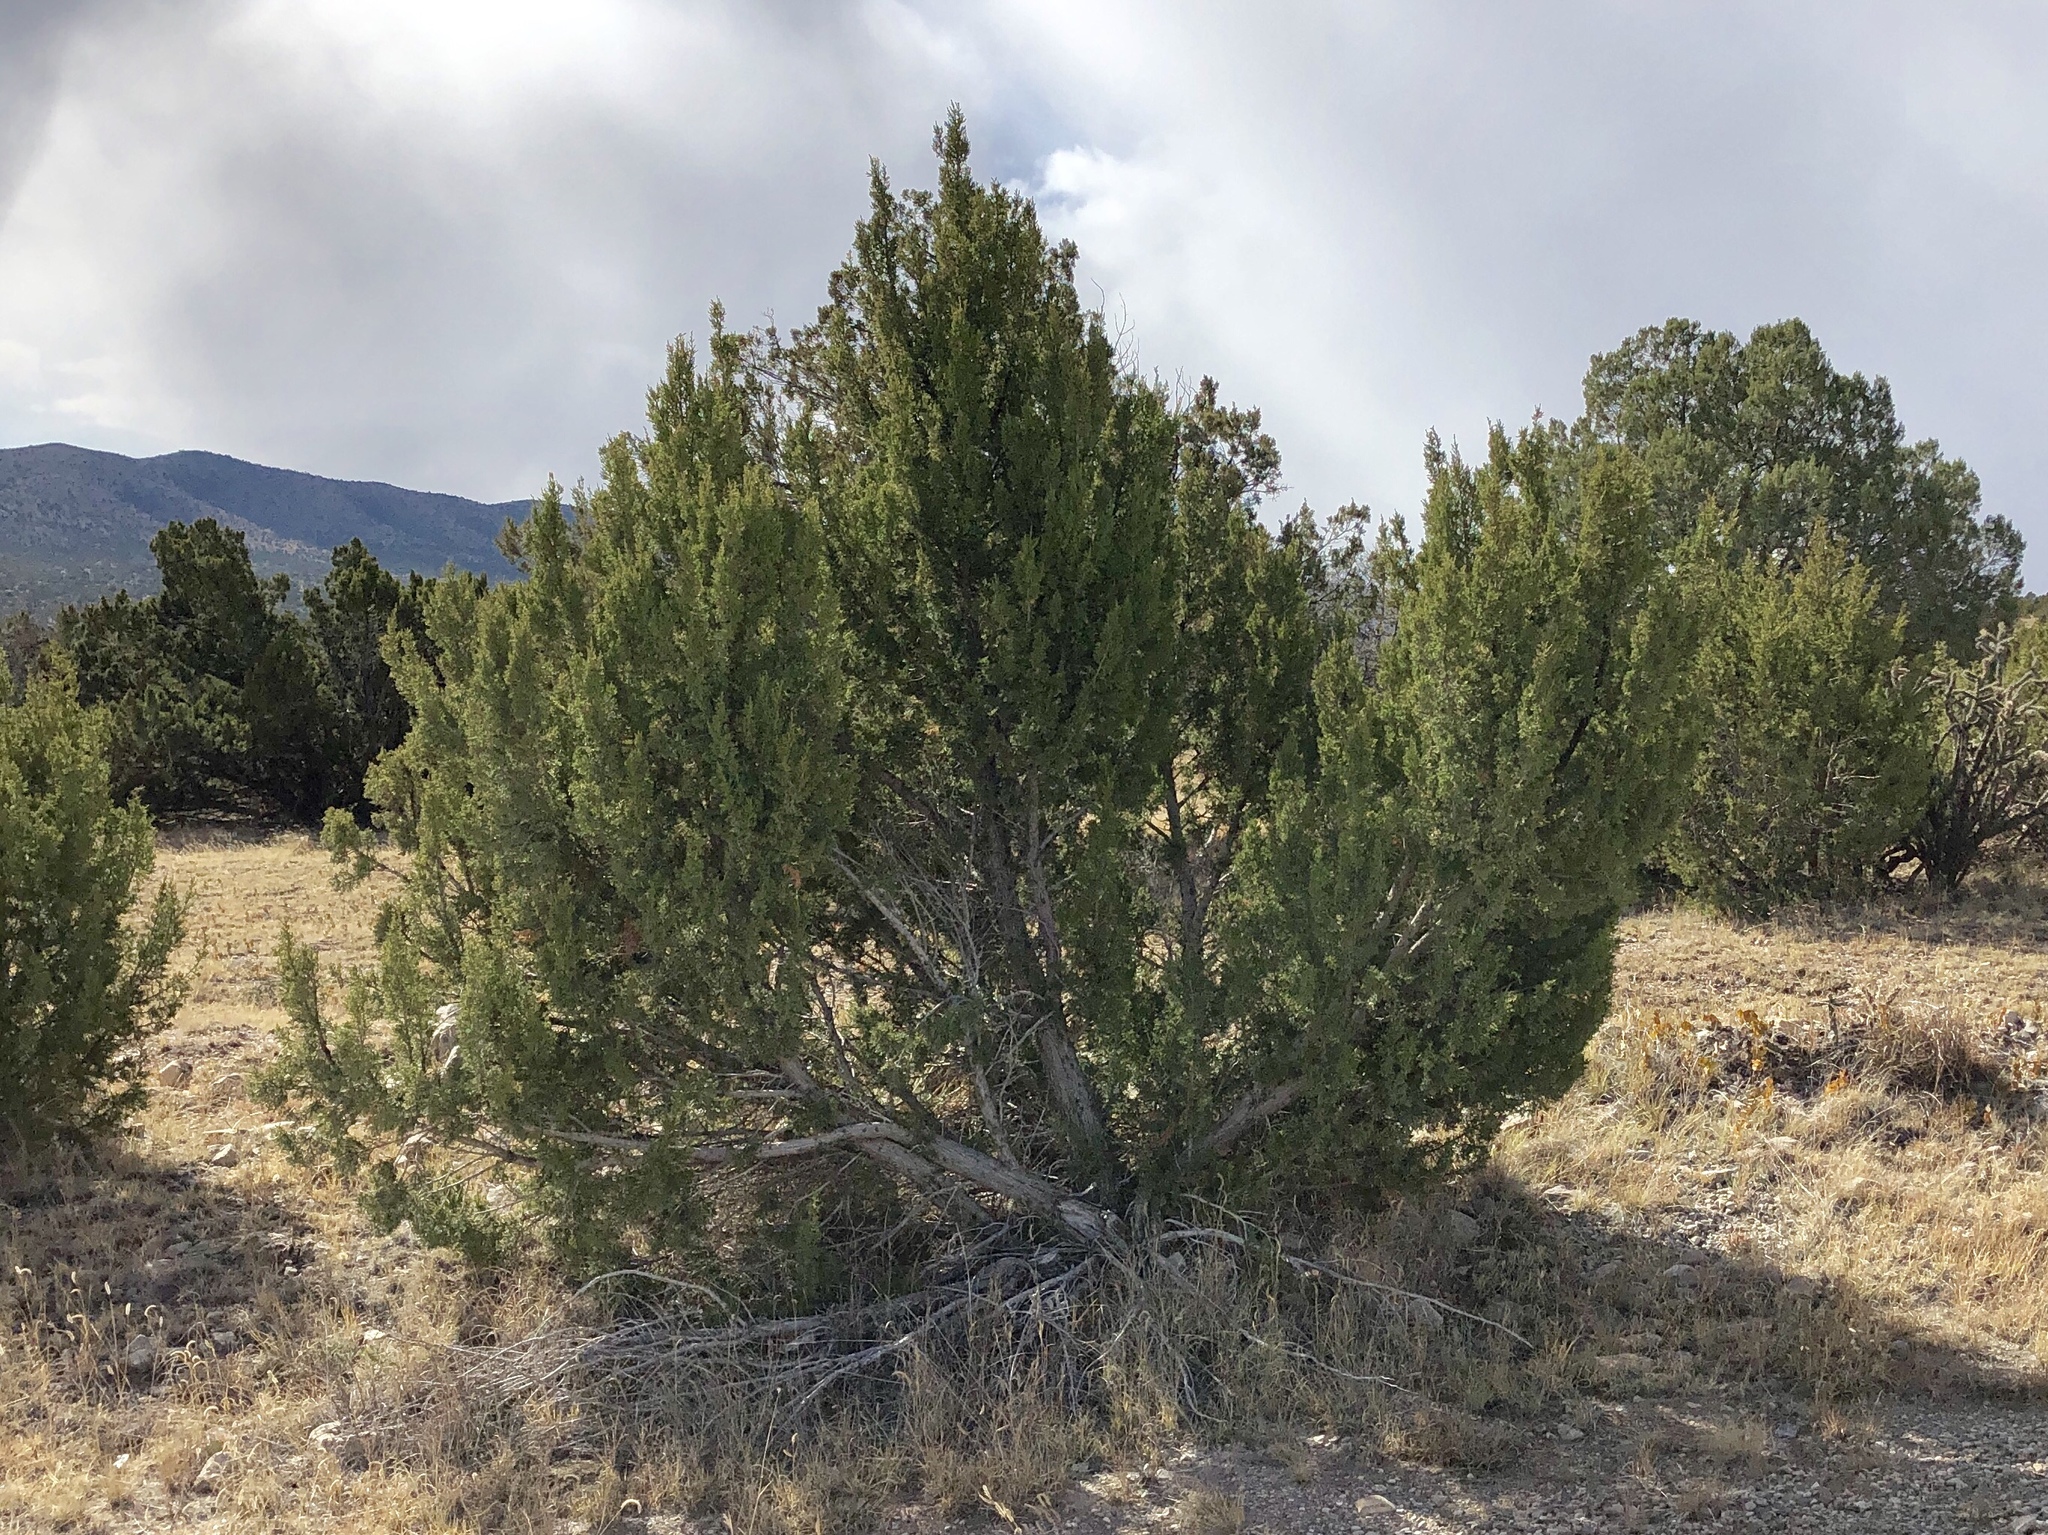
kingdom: Plantae
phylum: Tracheophyta
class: Pinopsida
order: Pinales
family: Cupressaceae
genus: Juniperus
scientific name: Juniperus monosperma
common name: One-seed juniper
